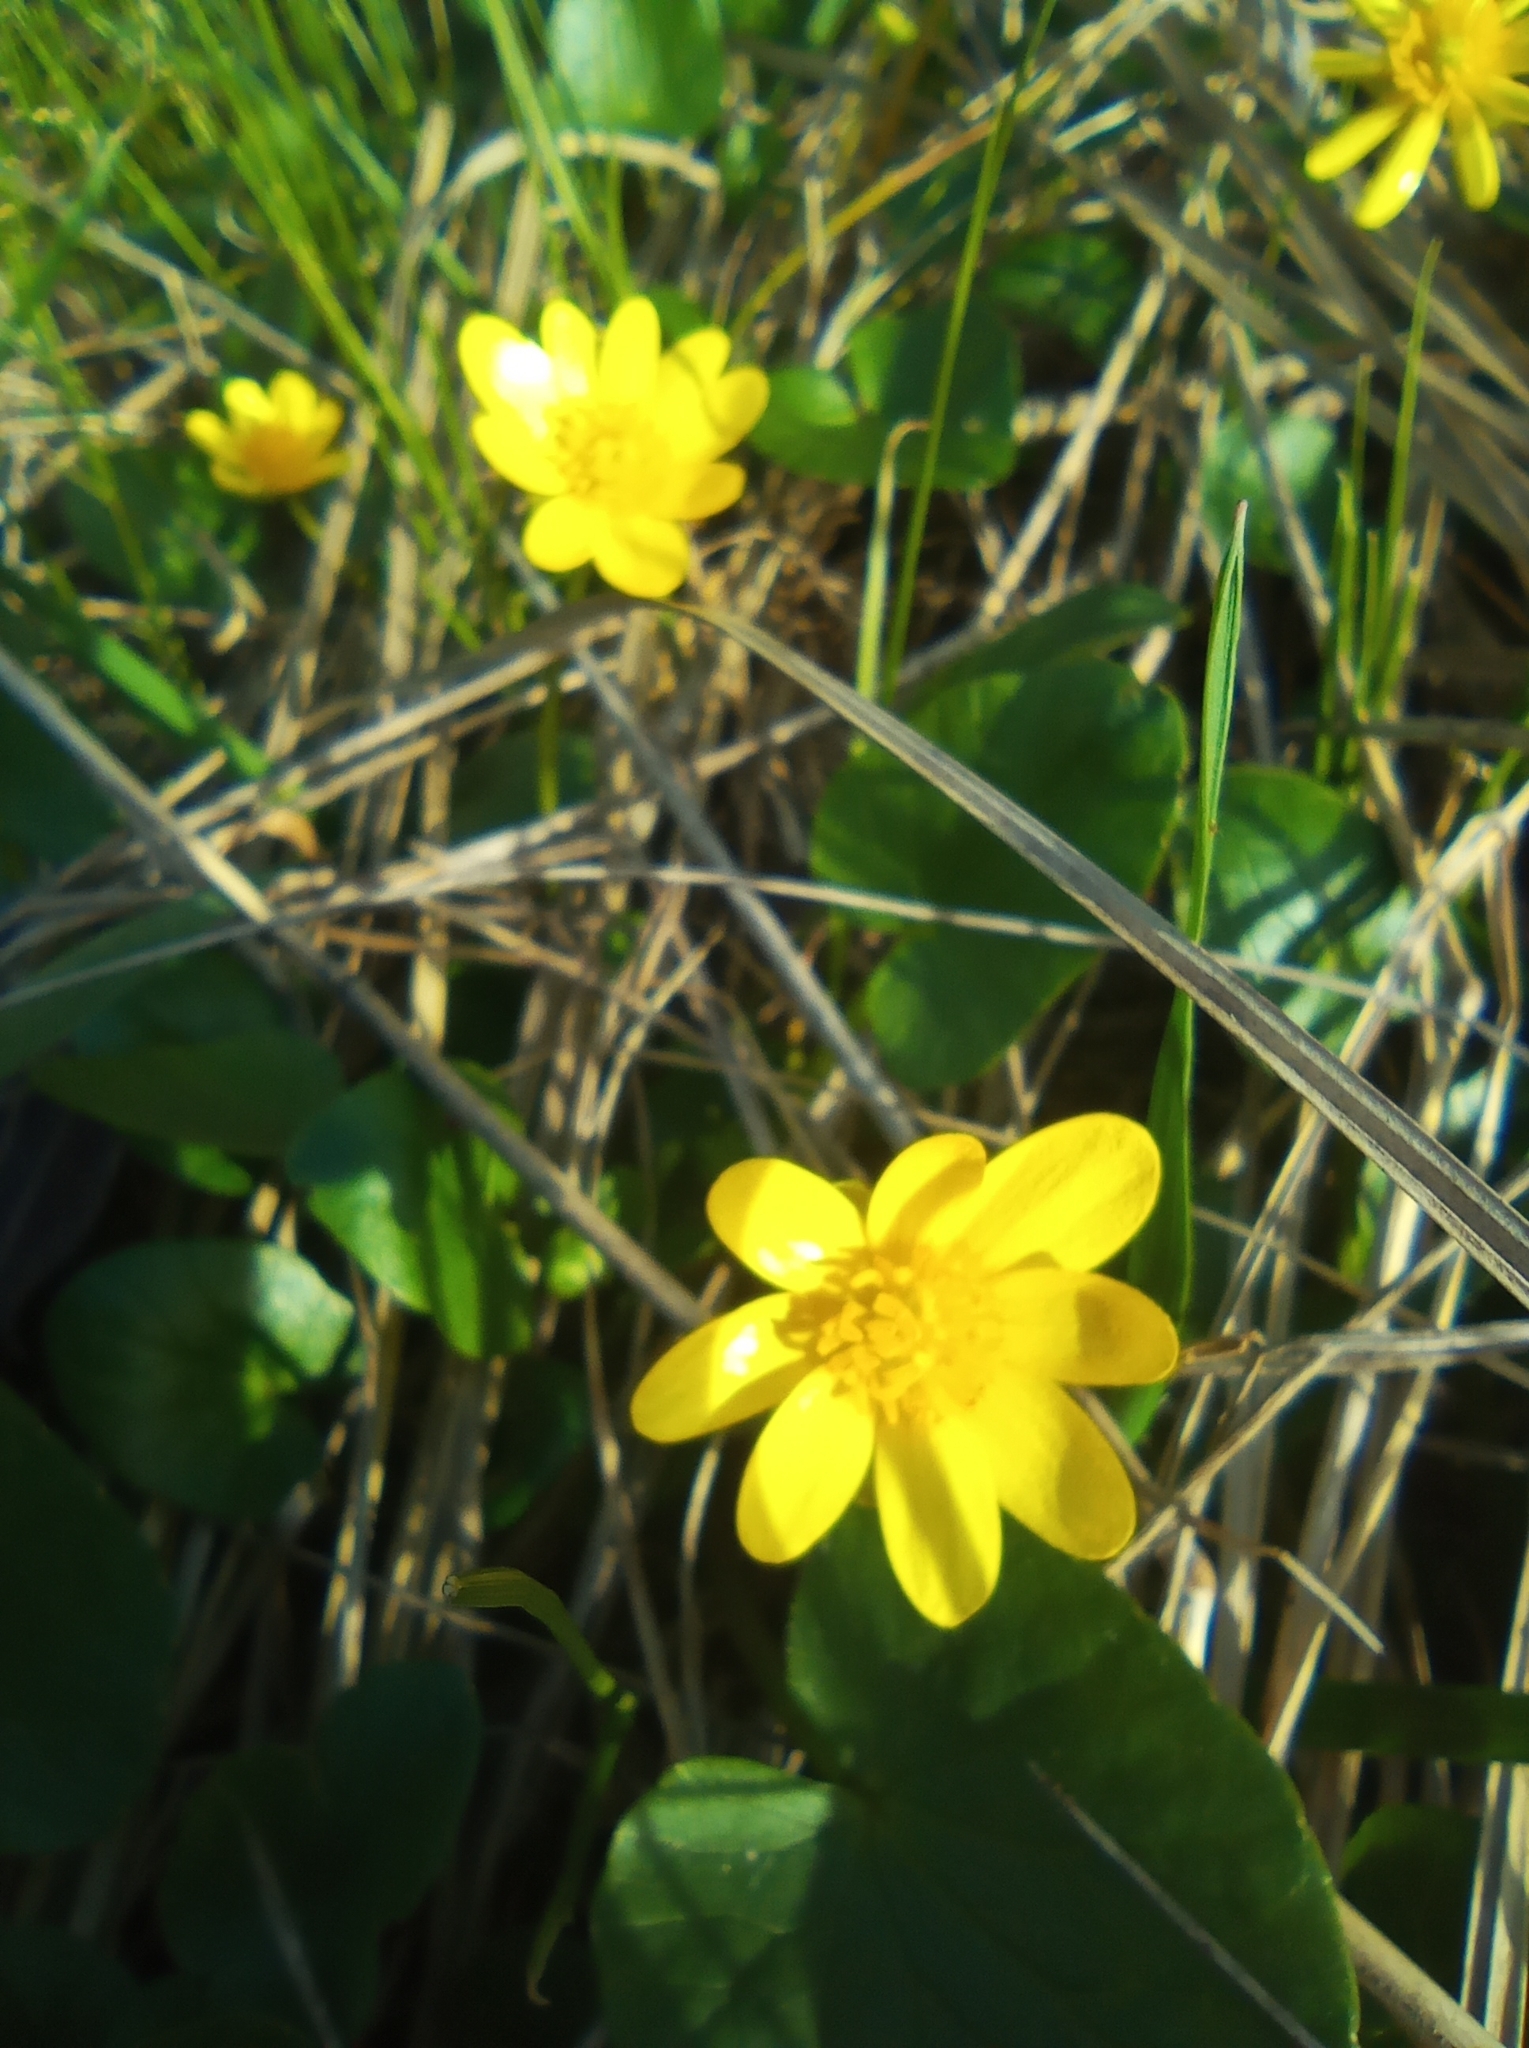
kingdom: Plantae
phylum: Tracheophyta
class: Magnoliopsida
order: Ranunculales
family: Ranunculaceae
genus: Ficaria
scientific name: Ficaria verna
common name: Lesser celandine
